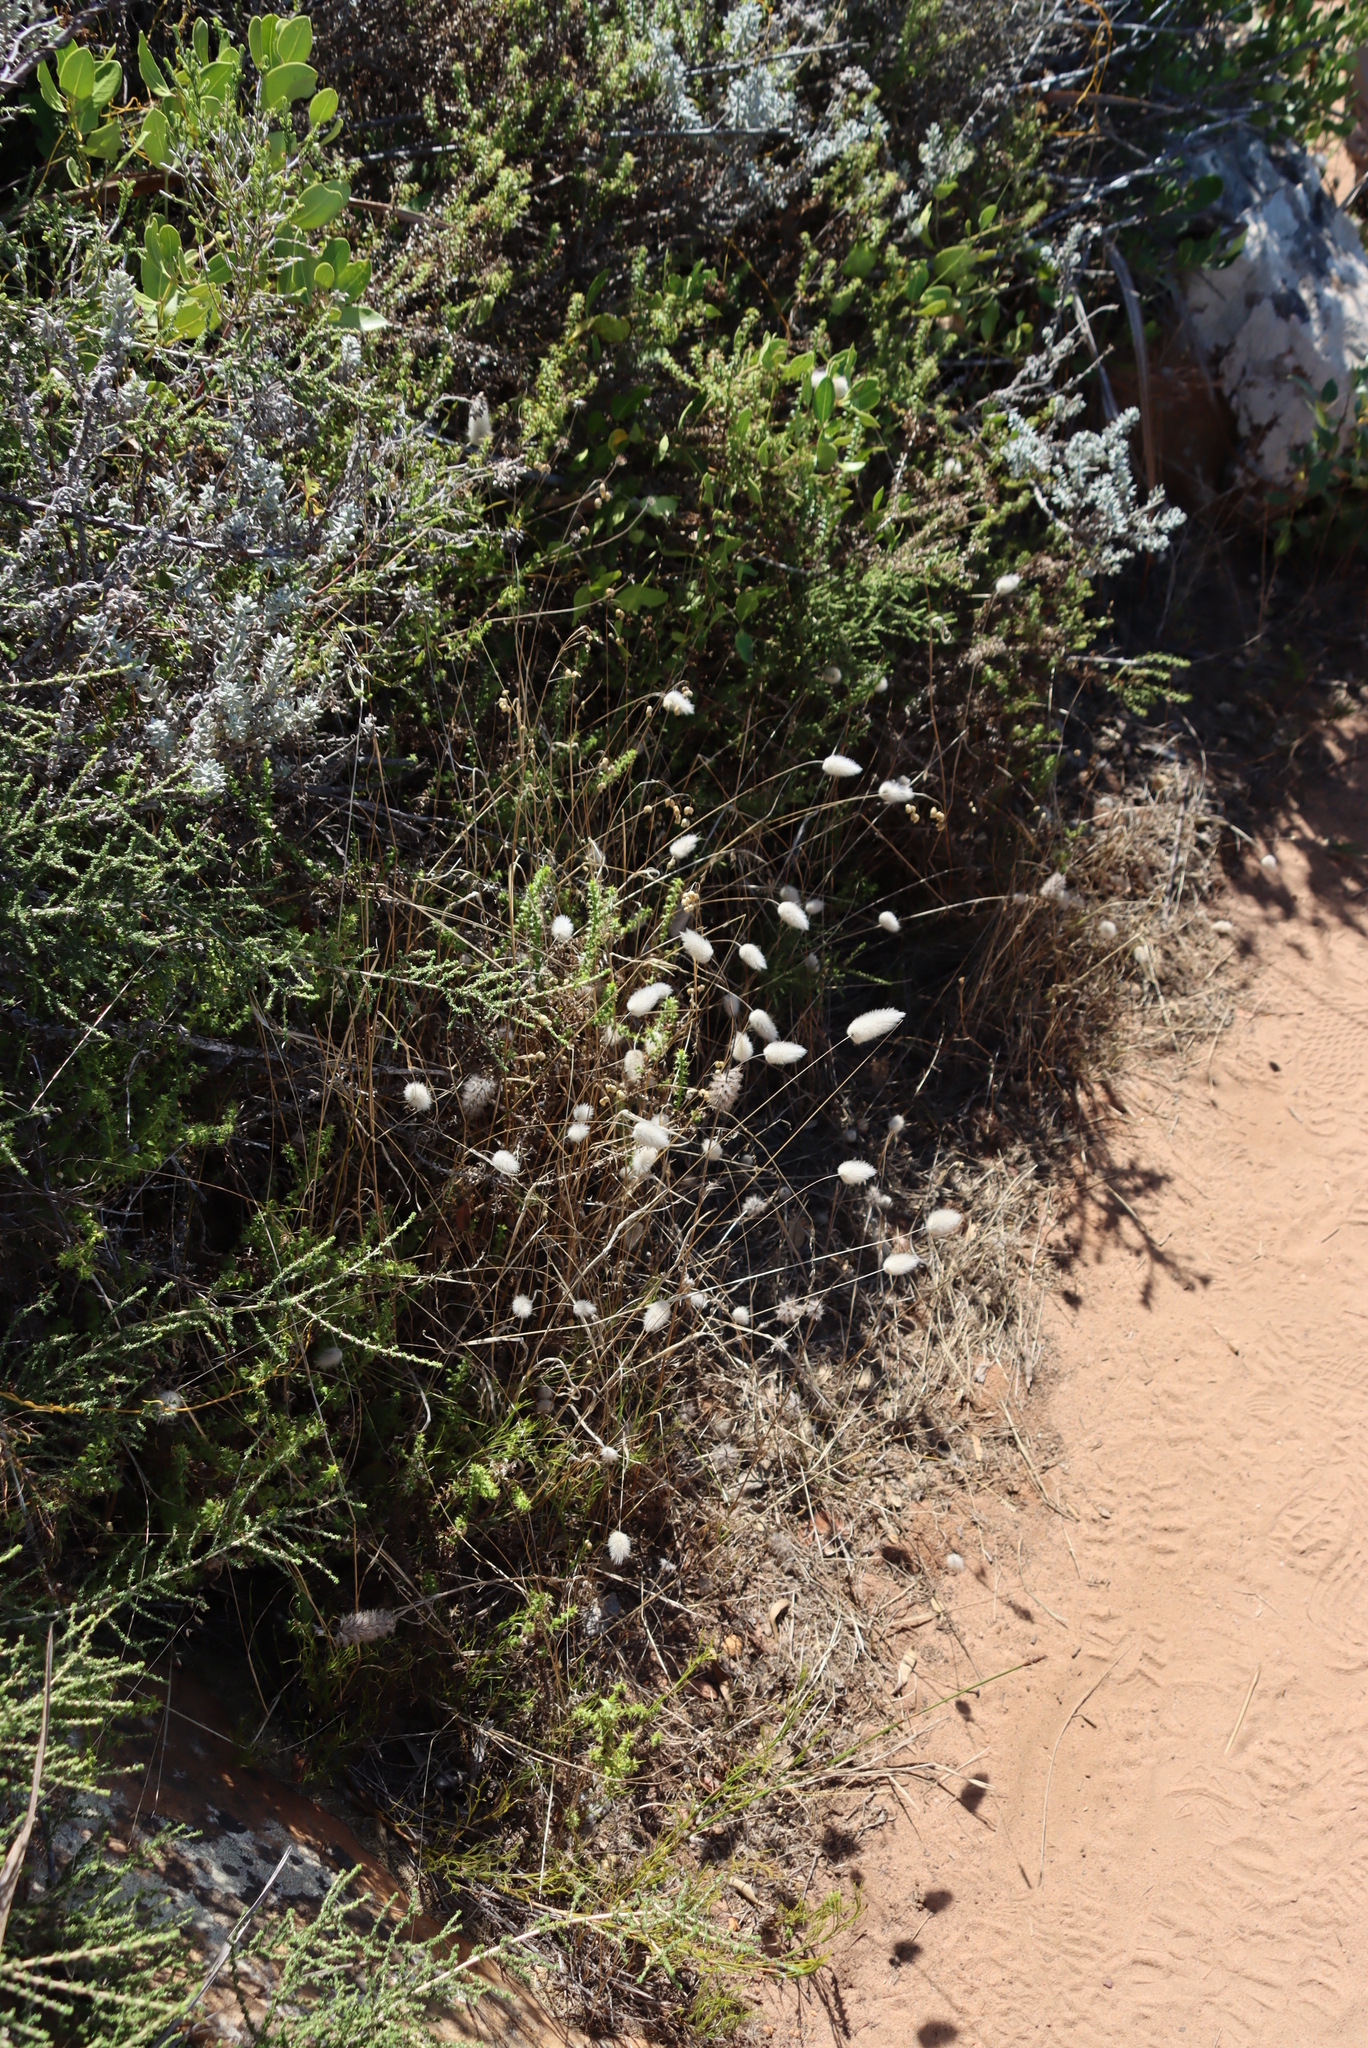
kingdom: Plantae
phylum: Tracheophyta
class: Liliopsida
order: Poales
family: Poaceae
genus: Lagurus
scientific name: Lagurus ovatus
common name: Hare's-tail
